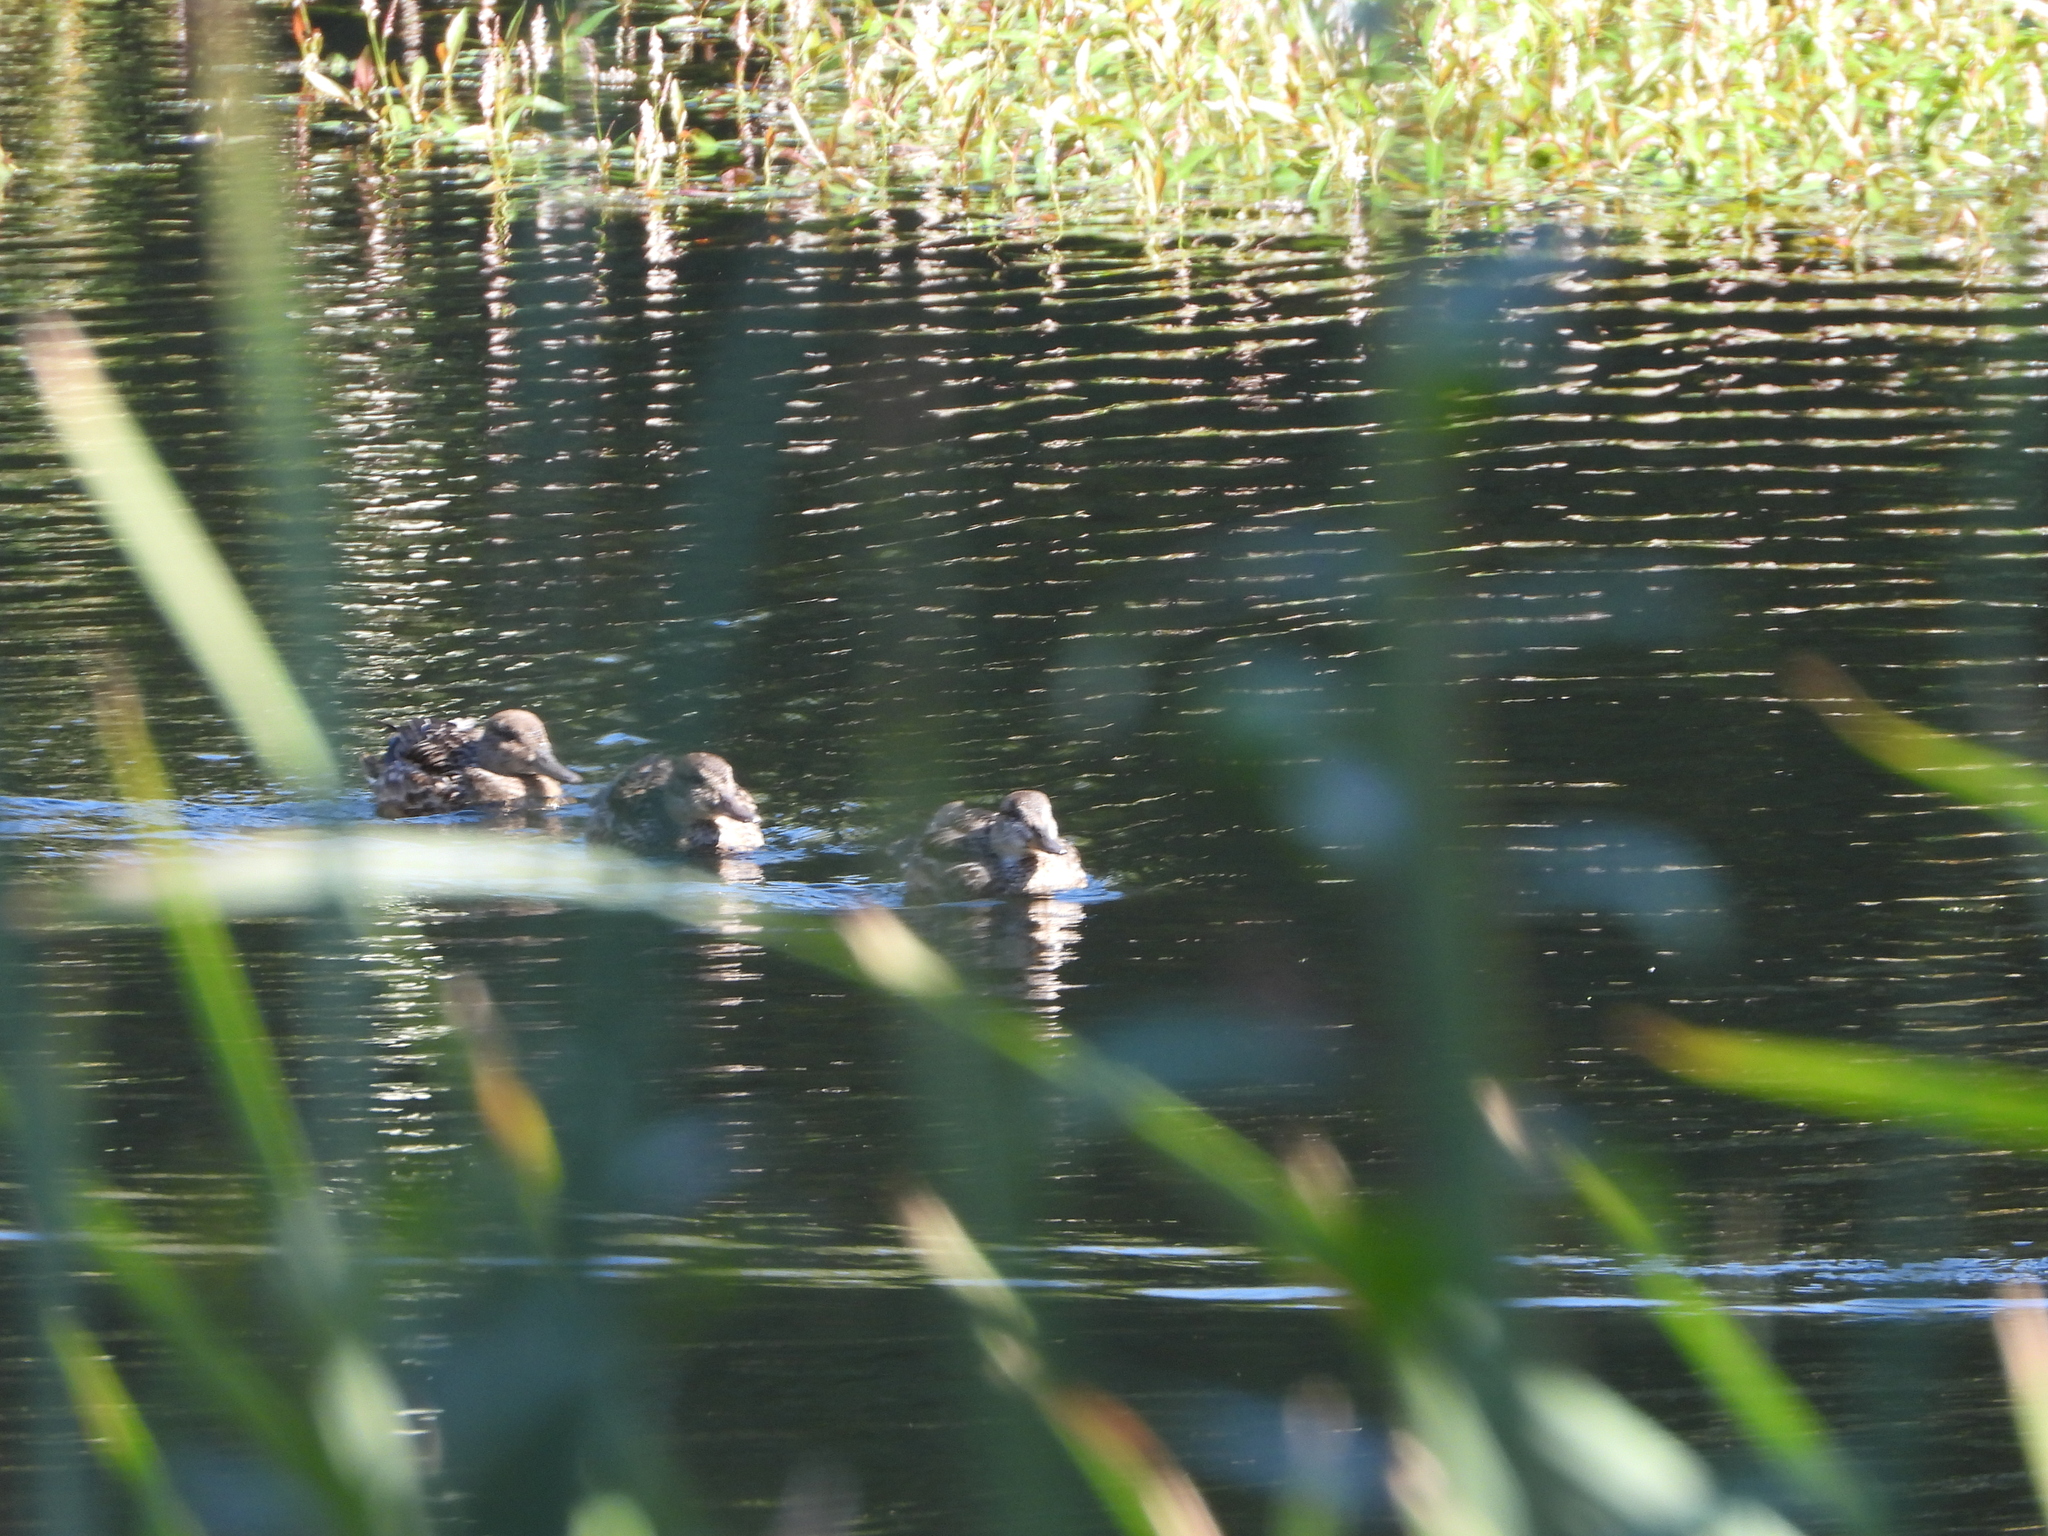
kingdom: Animalia
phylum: Chordata
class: Aves
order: Anseriformes
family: Anatidae
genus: Anas
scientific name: Anas crecca
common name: Eurasian teal
